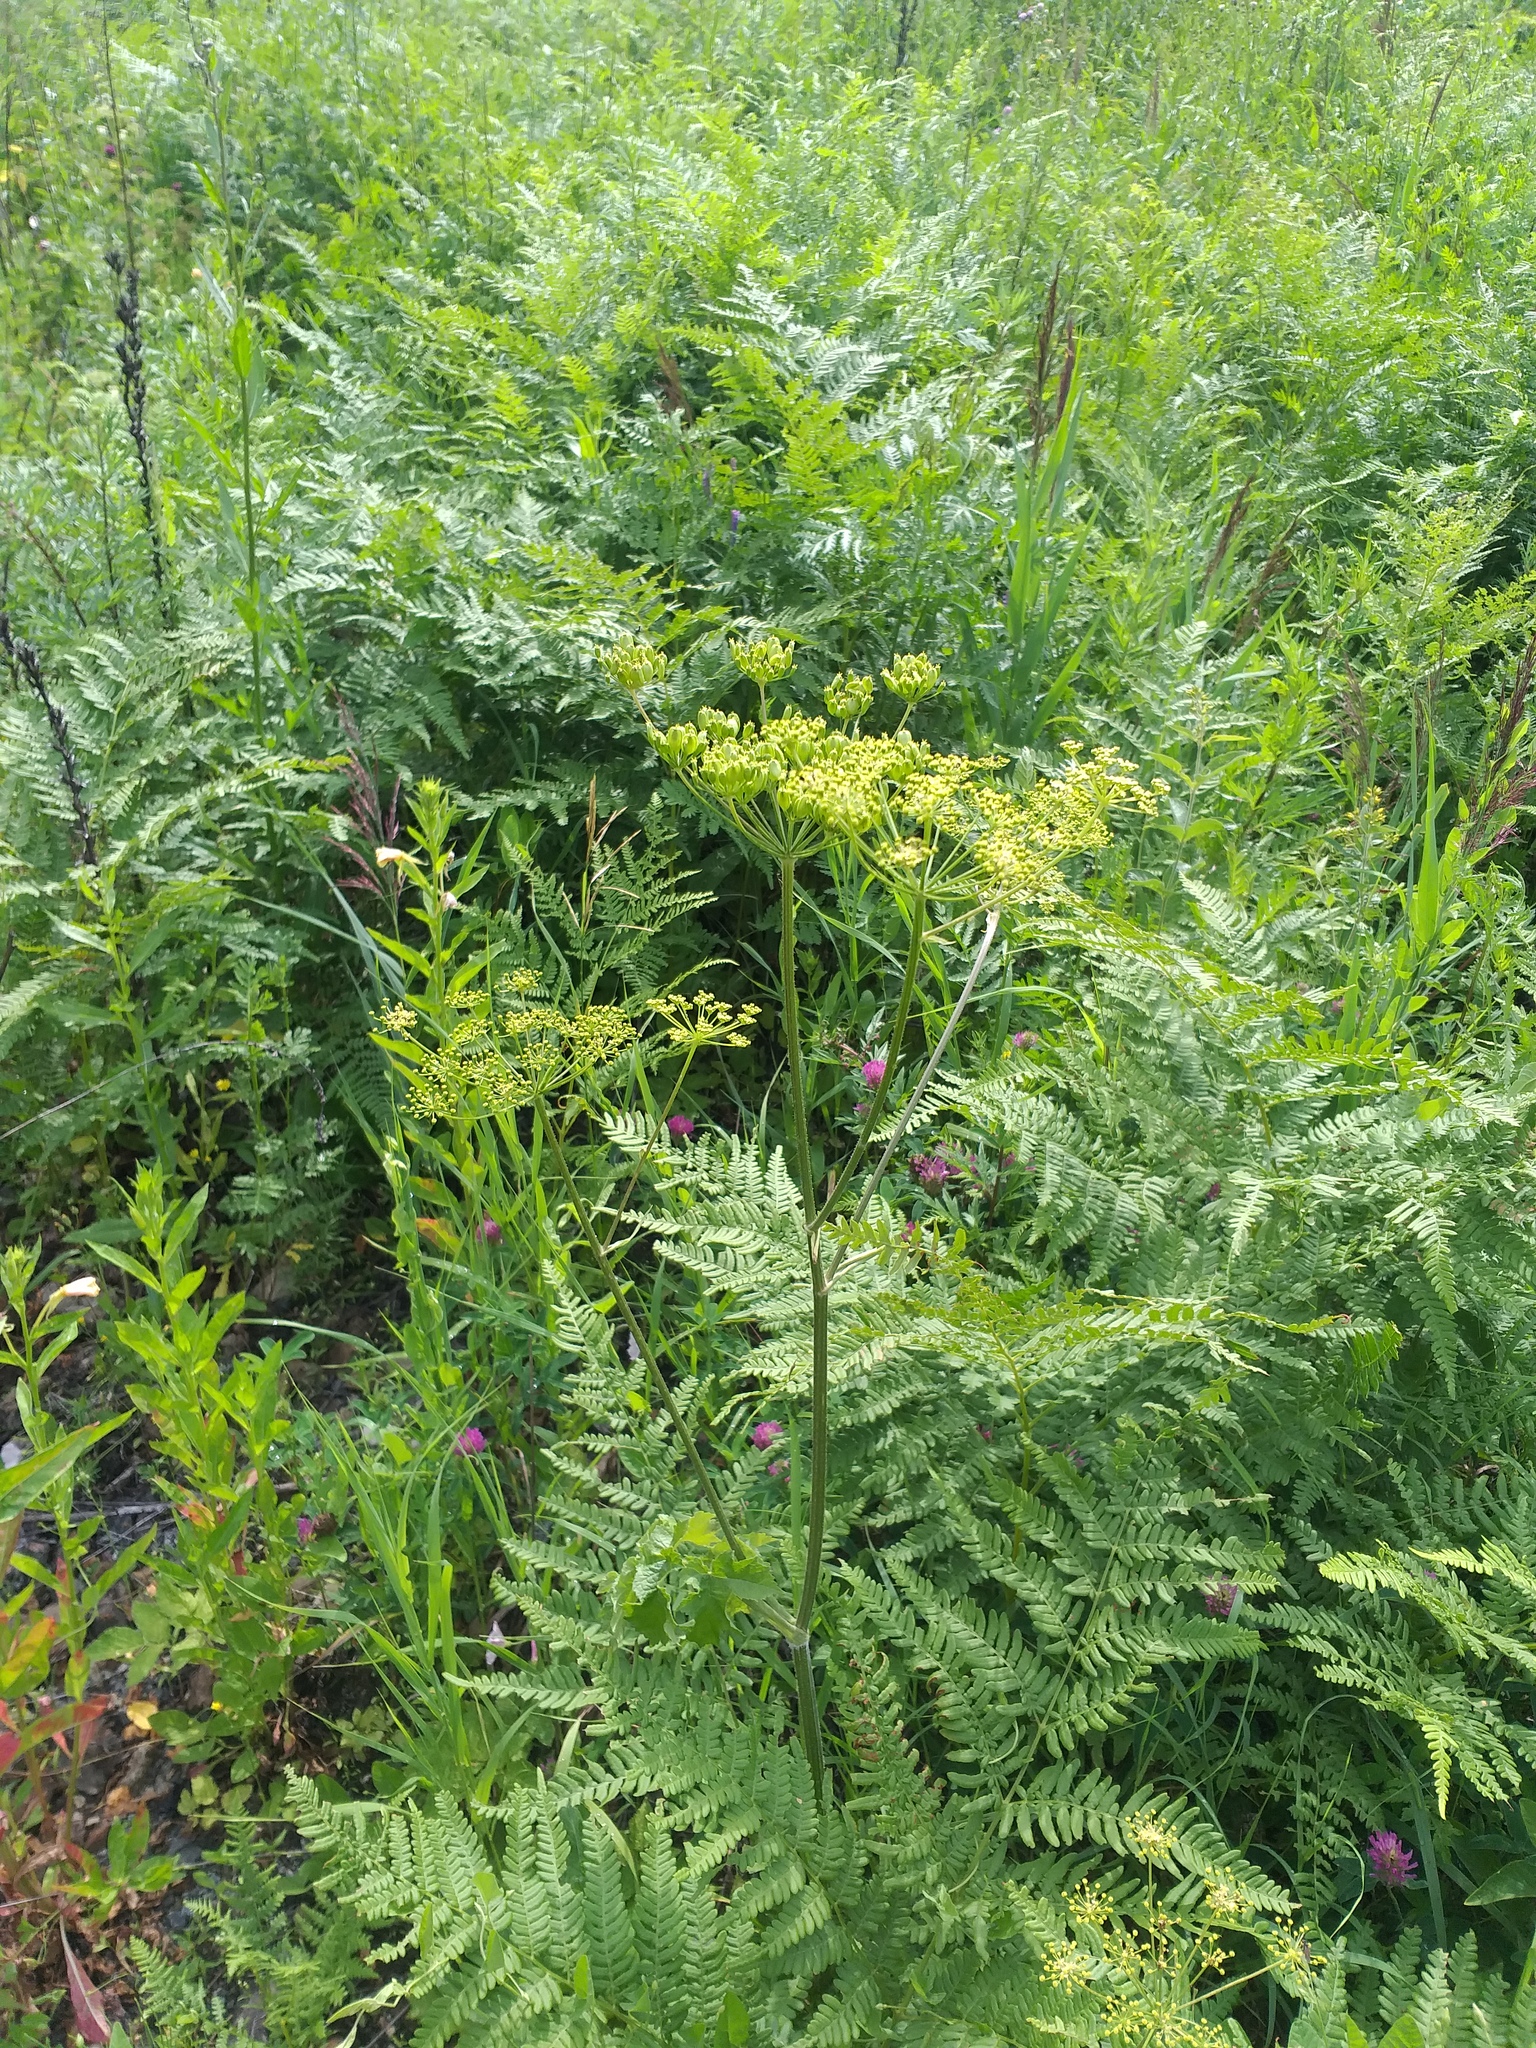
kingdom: Plantae
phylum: Tracheophyta
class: Magnoliopsida
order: Apiales
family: Apiaceae
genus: Heracleum
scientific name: Heracleum sphondylium
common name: Hogweed
